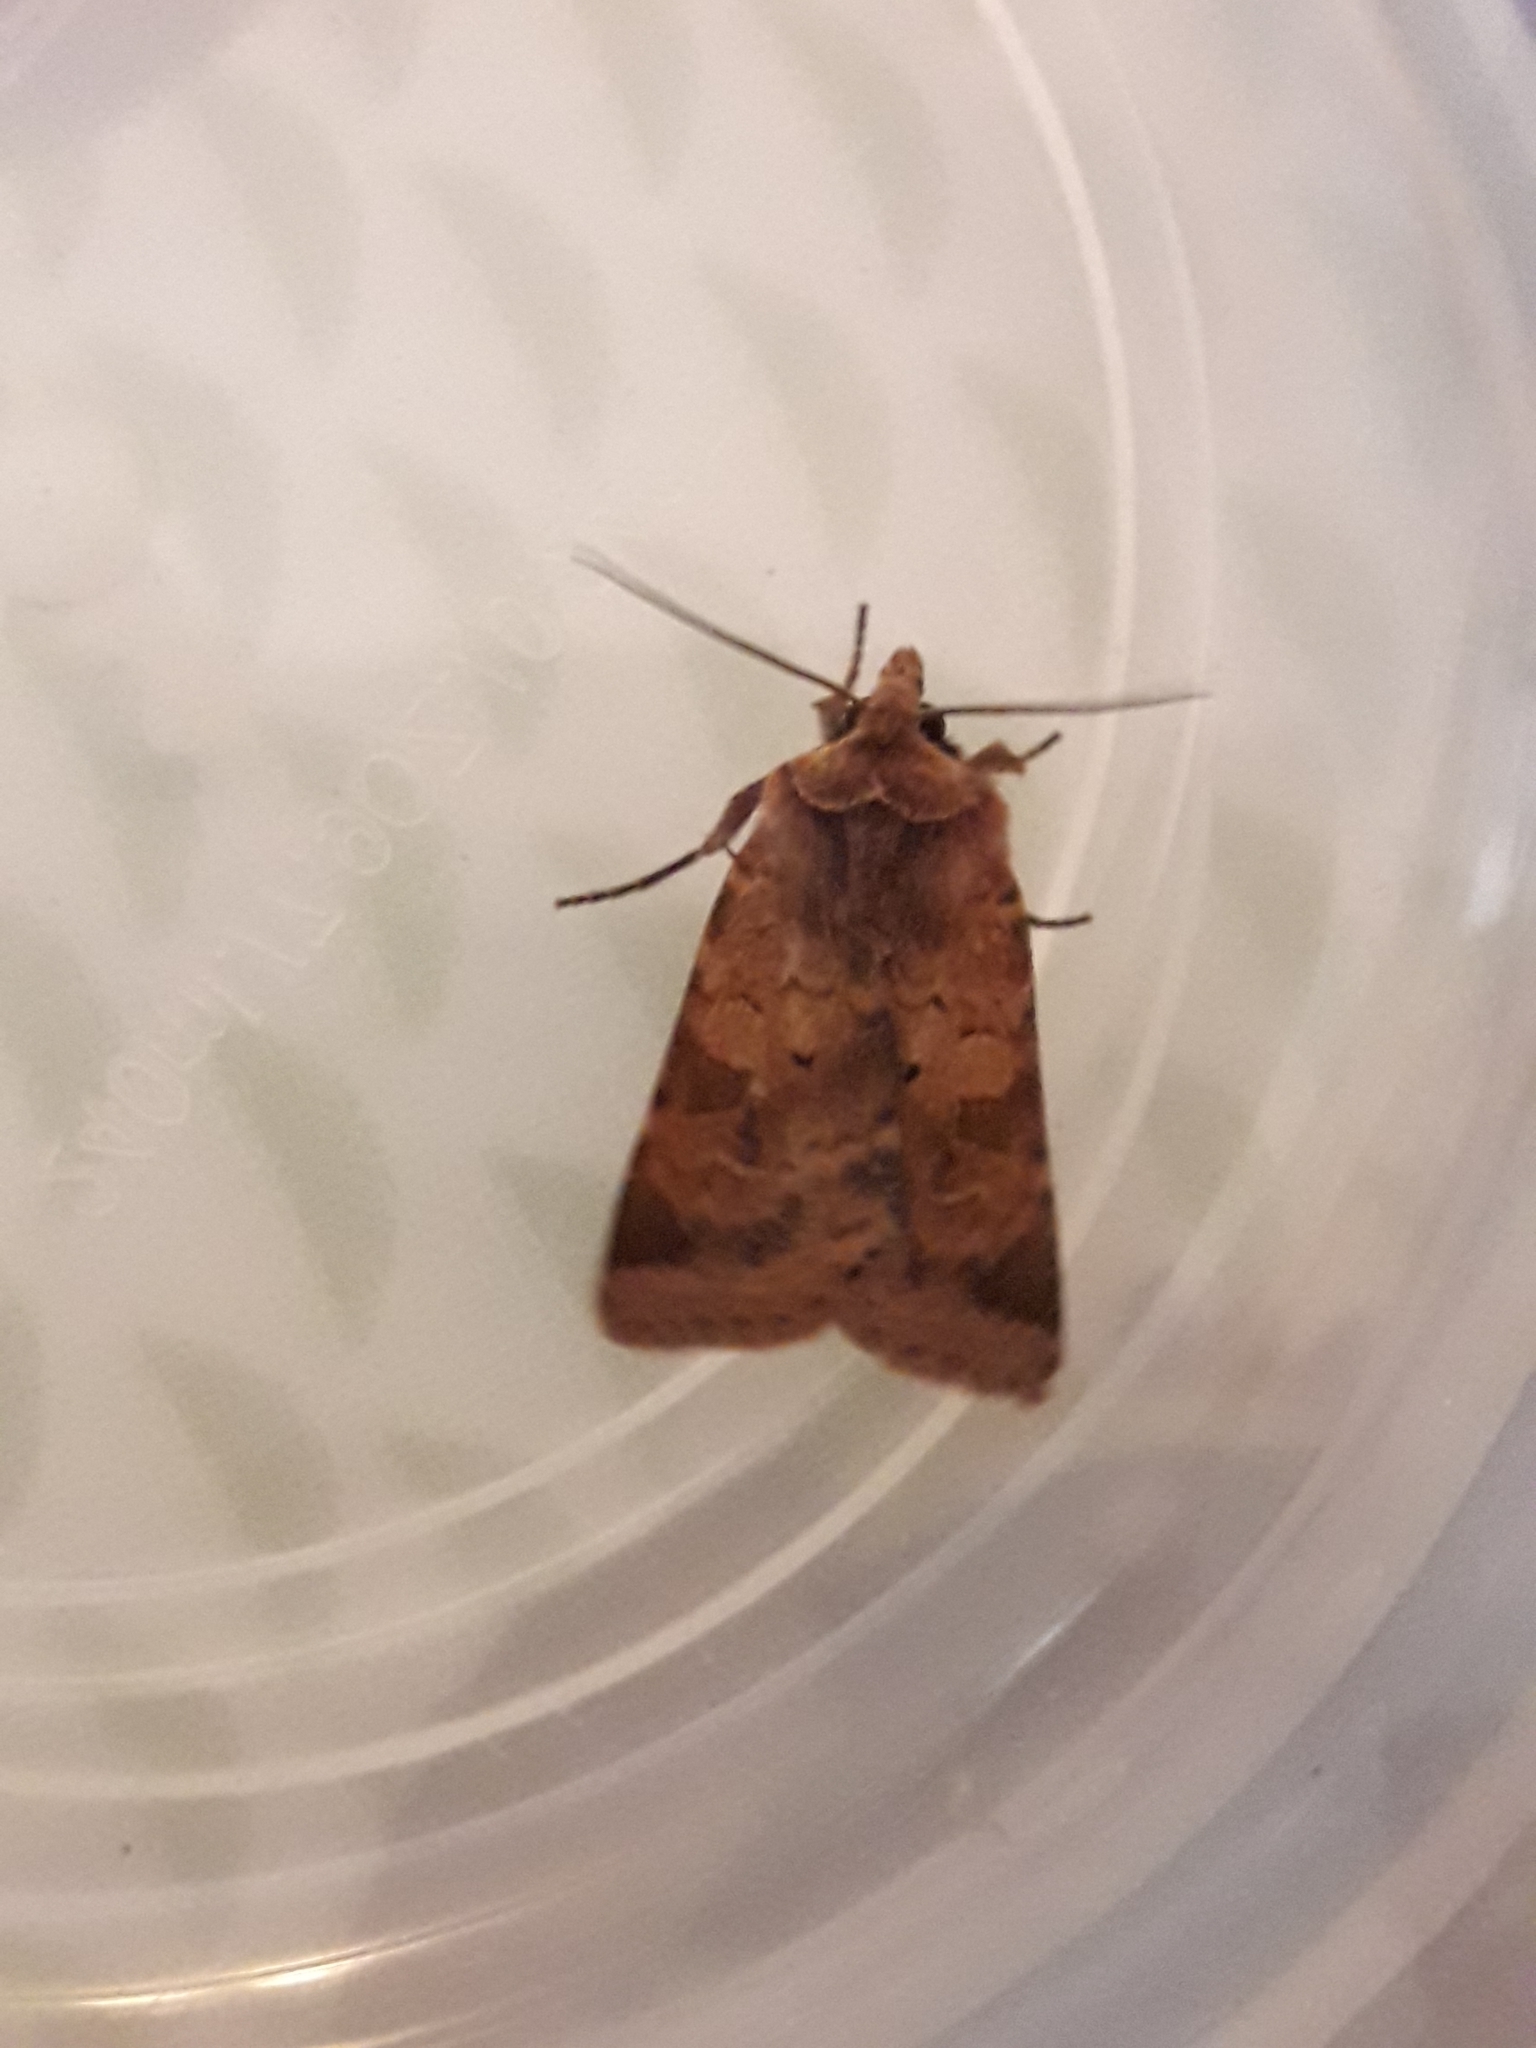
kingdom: Animalia
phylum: Arthropoda
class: Insecta
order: Lepidoptera
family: Noctuidae
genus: Diarsia
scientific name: Diarsia mendica
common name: Ingrailed clay
